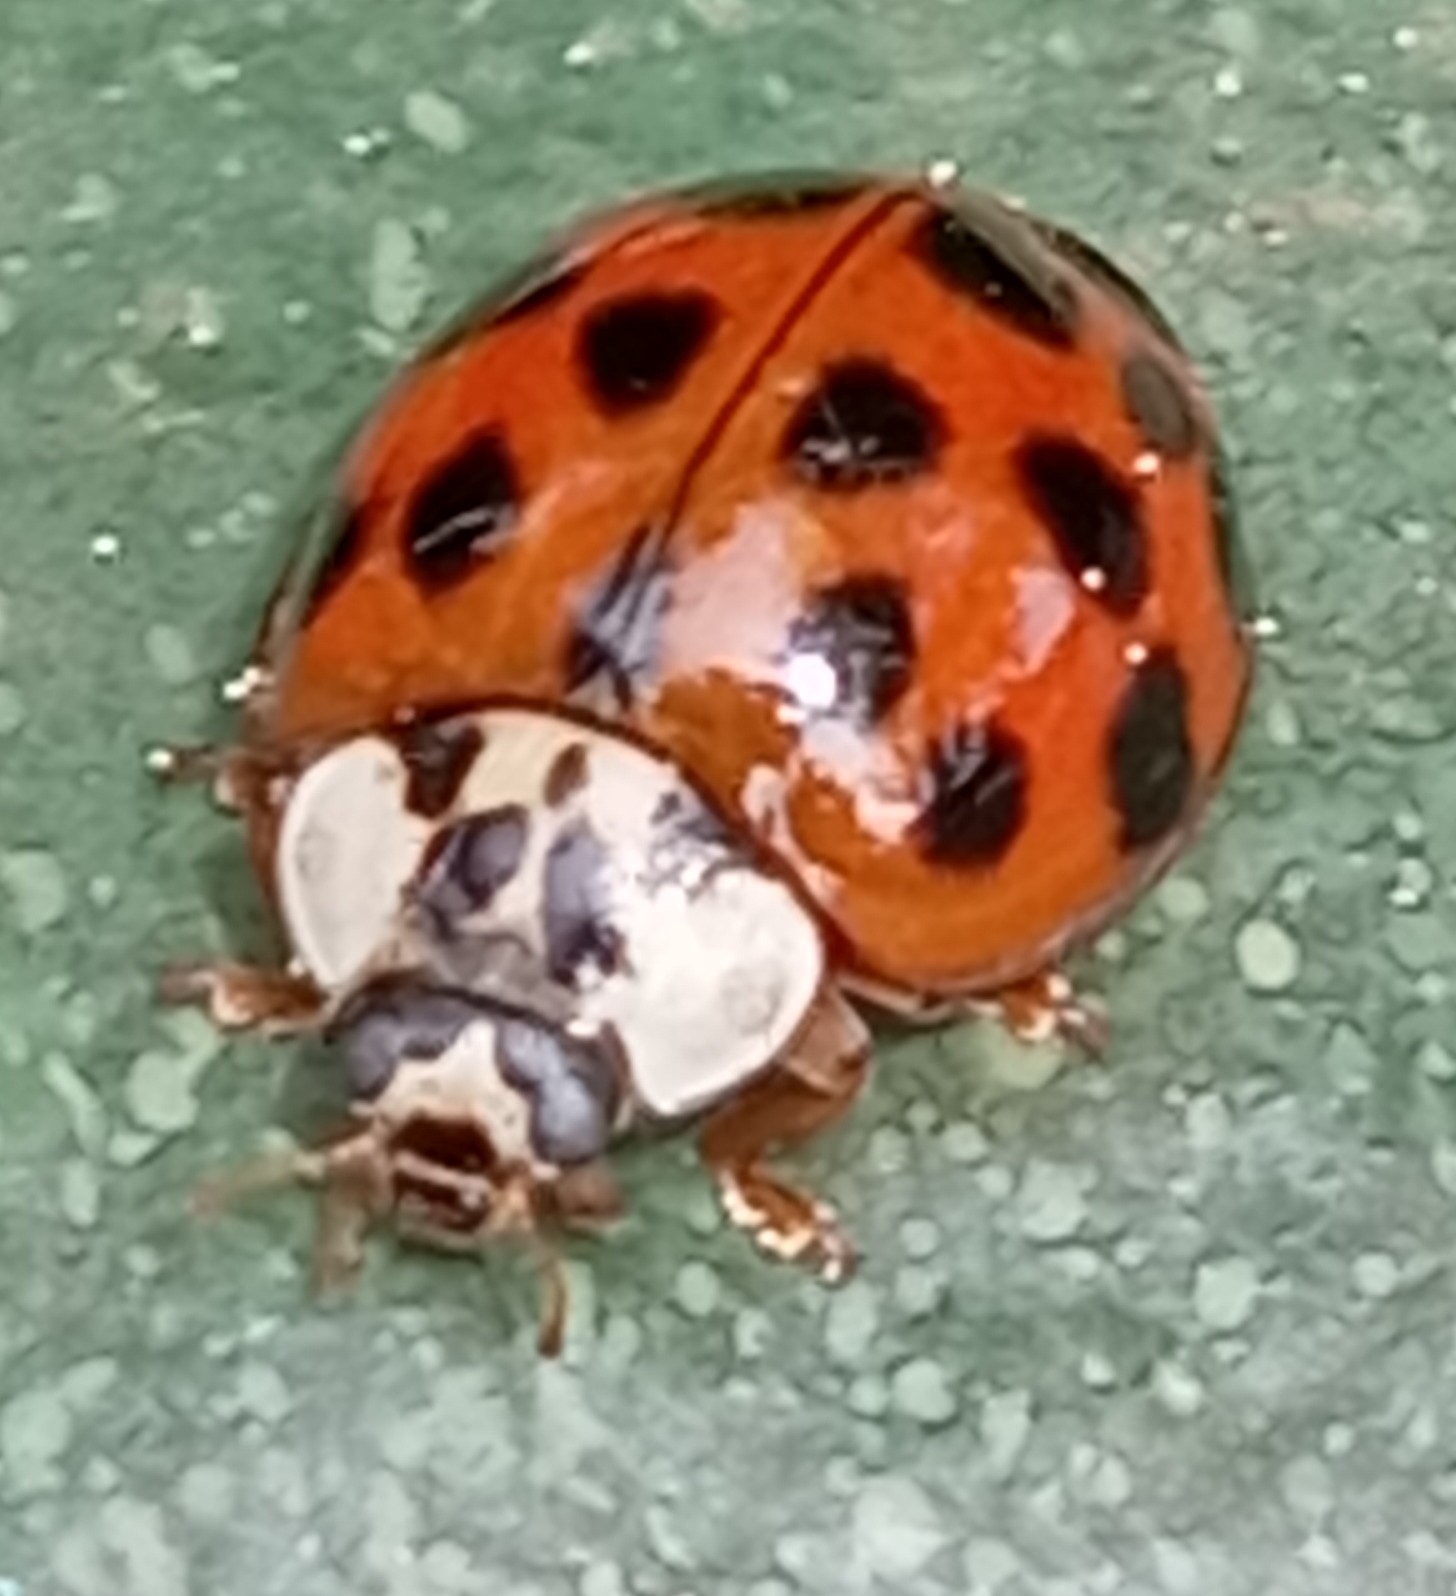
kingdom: Animalia
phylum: Arthropoda
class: Insecta
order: Coleoptera
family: Coccinellidae
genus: Harmonia
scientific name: Harmonia axyridis
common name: Harlequin ladybird
